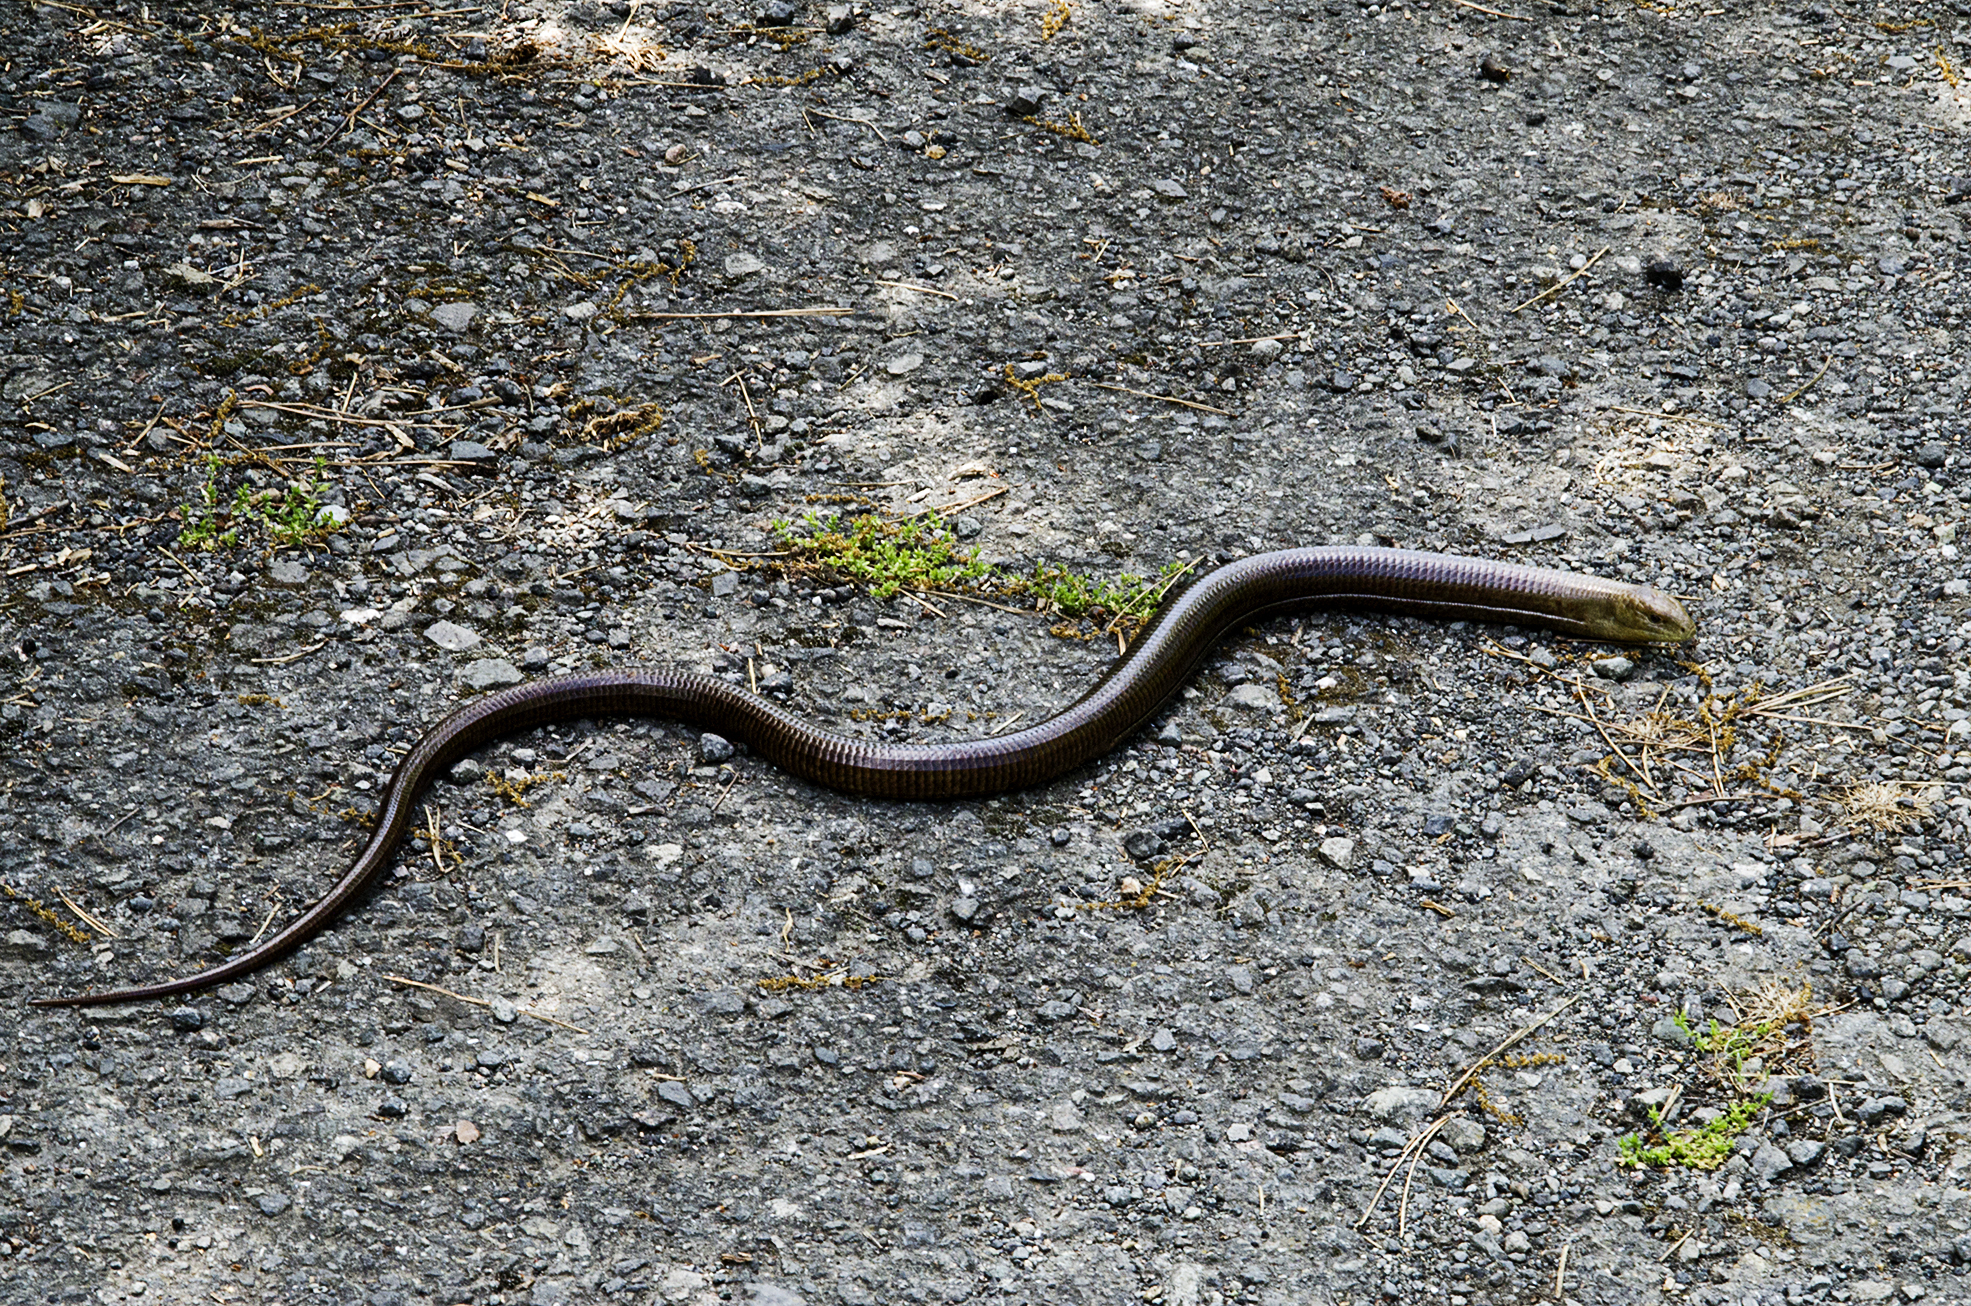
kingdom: Animalia
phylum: Chordata
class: Squamata
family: Anguidae
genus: Pseudopus
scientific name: Pseudopus apodus
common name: European glass lizard
